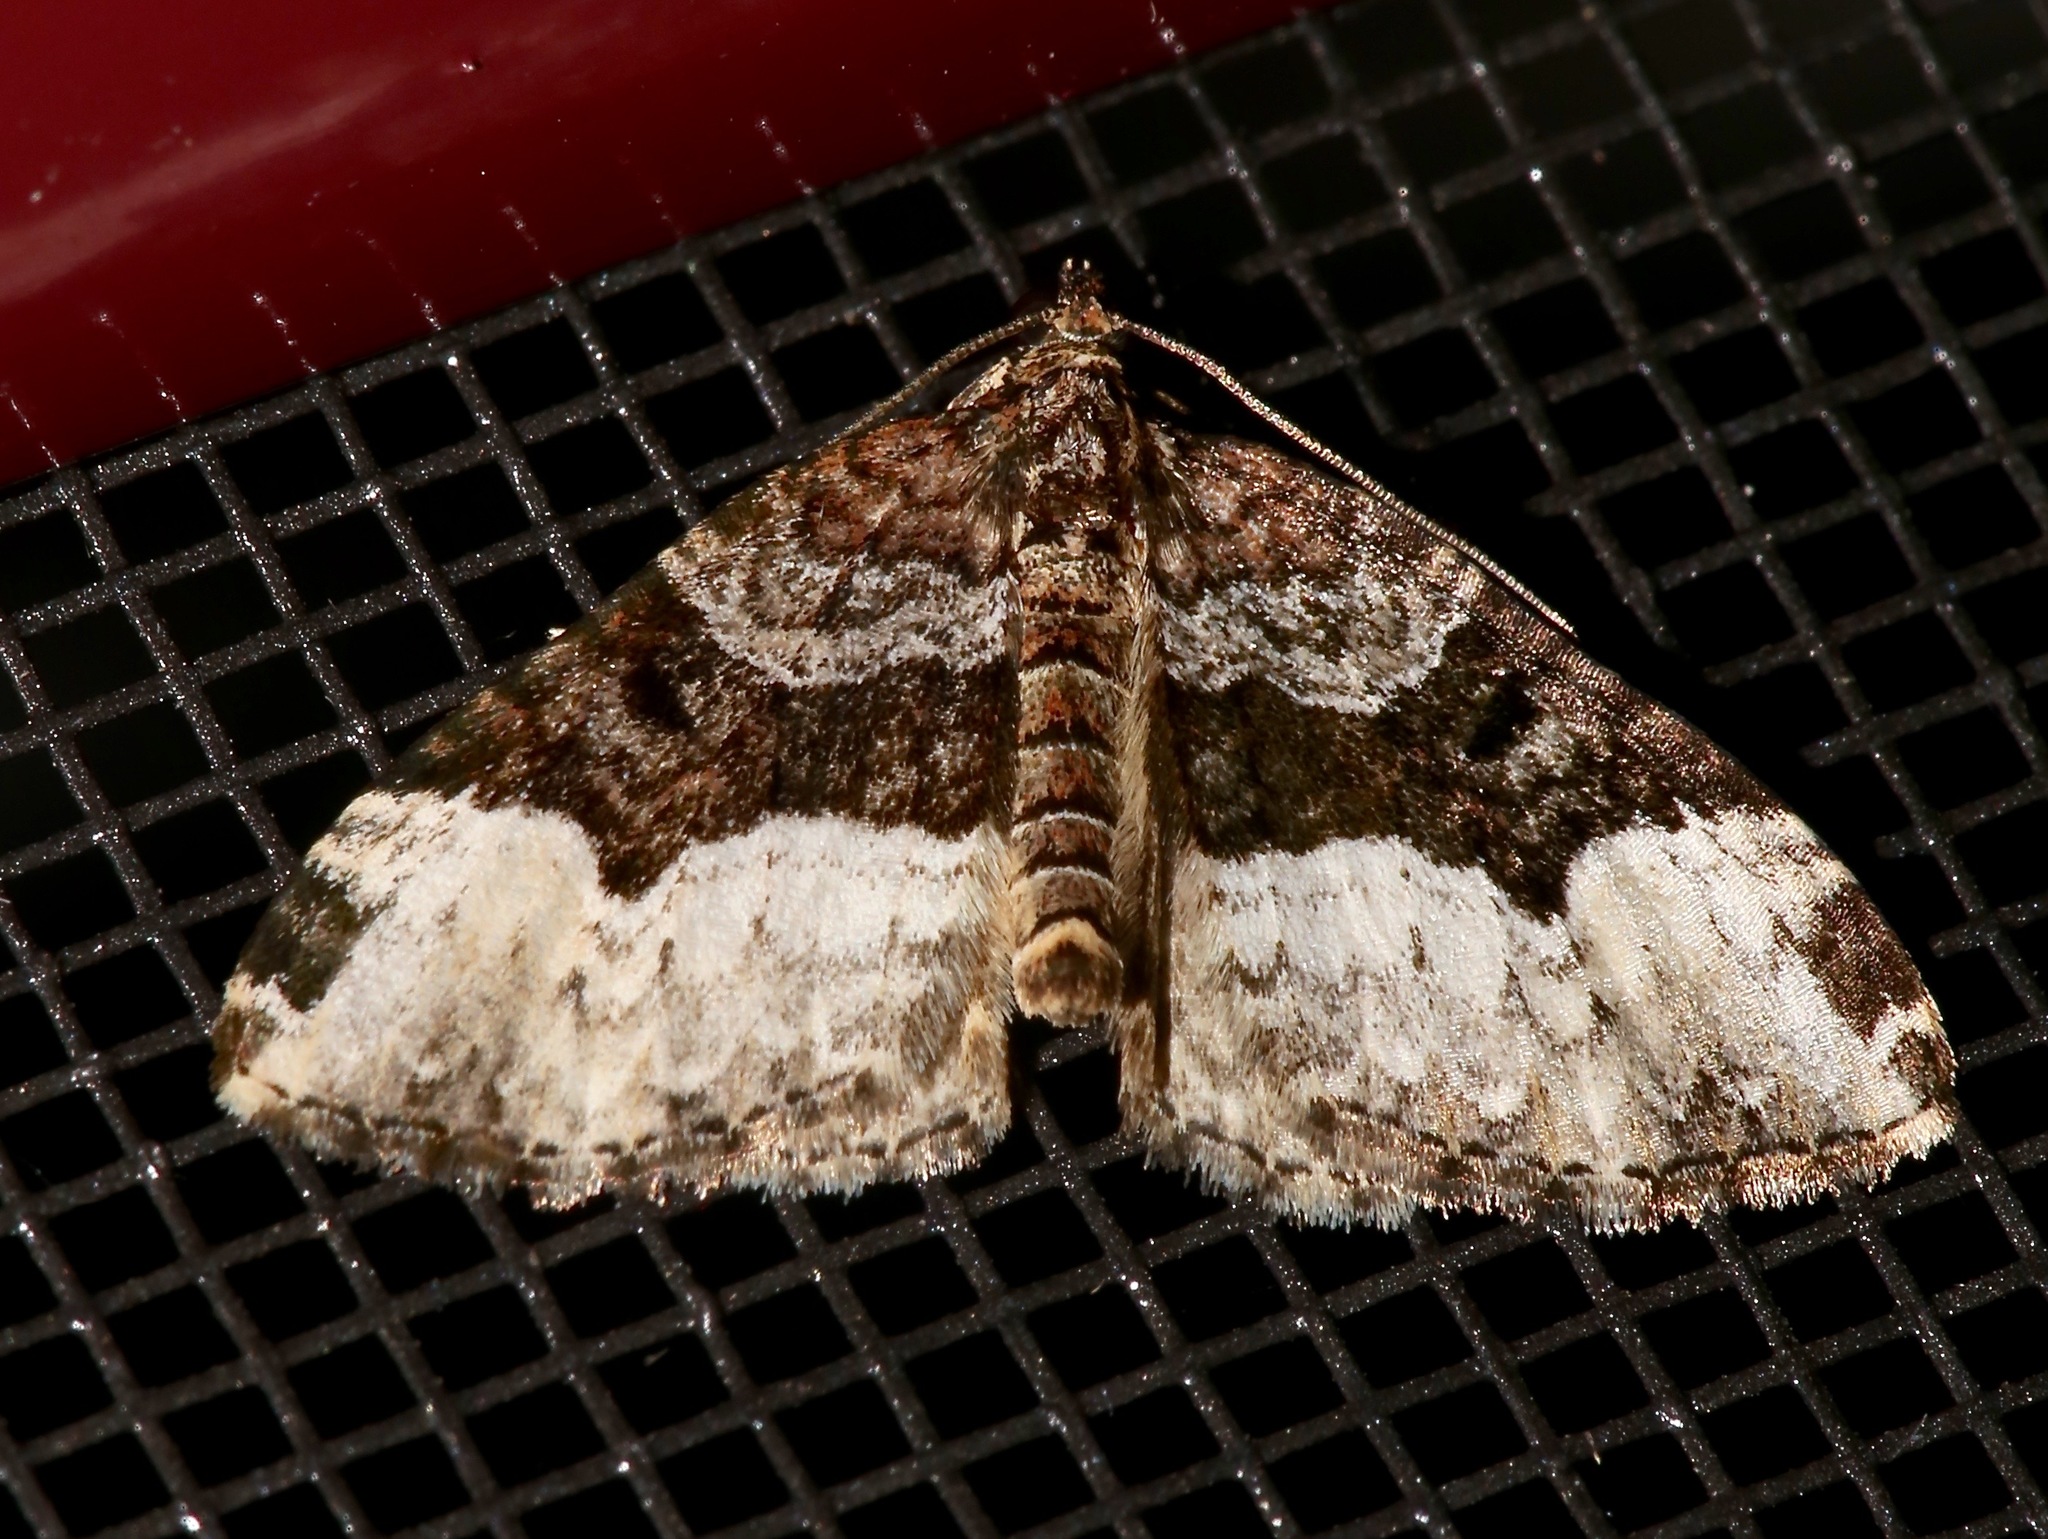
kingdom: Animalia
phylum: Arthropoda
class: Insecta
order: Lepidoptera
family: Geometridae
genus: Euphyia
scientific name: Euphyia intermediata
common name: Sharp-angled carpet
